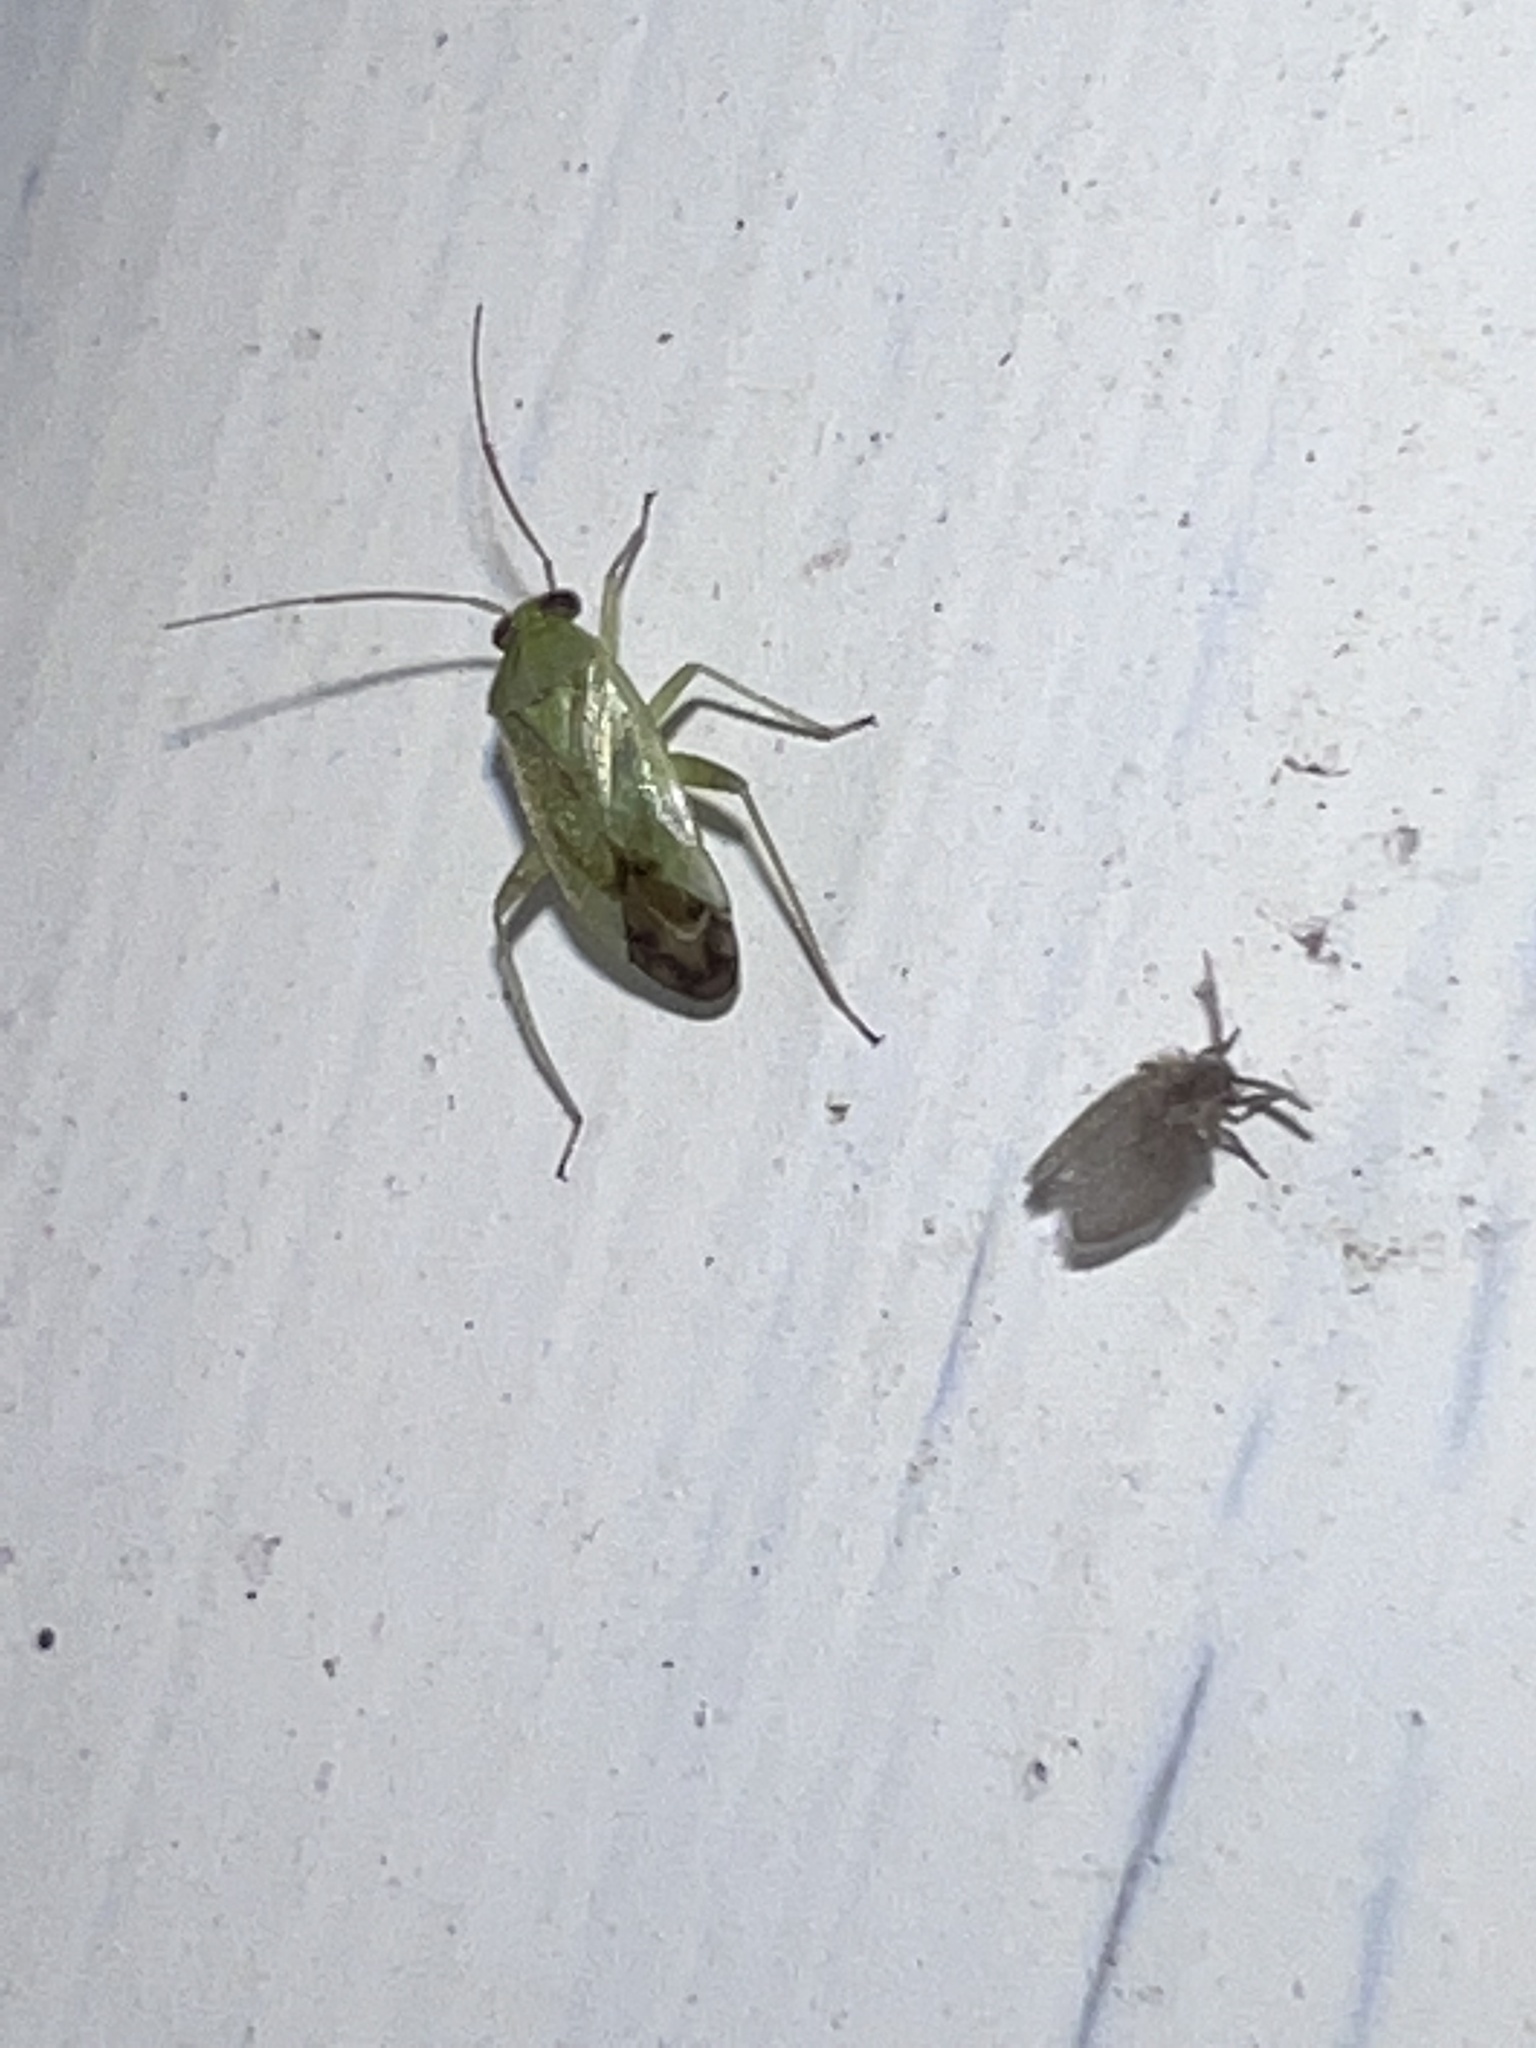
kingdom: Animalia
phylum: Arthropoda
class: Insecta
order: Hemiptera
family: Miridae
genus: Taylorilygus
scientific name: Taylorilygus apicalis
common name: Plant bug
